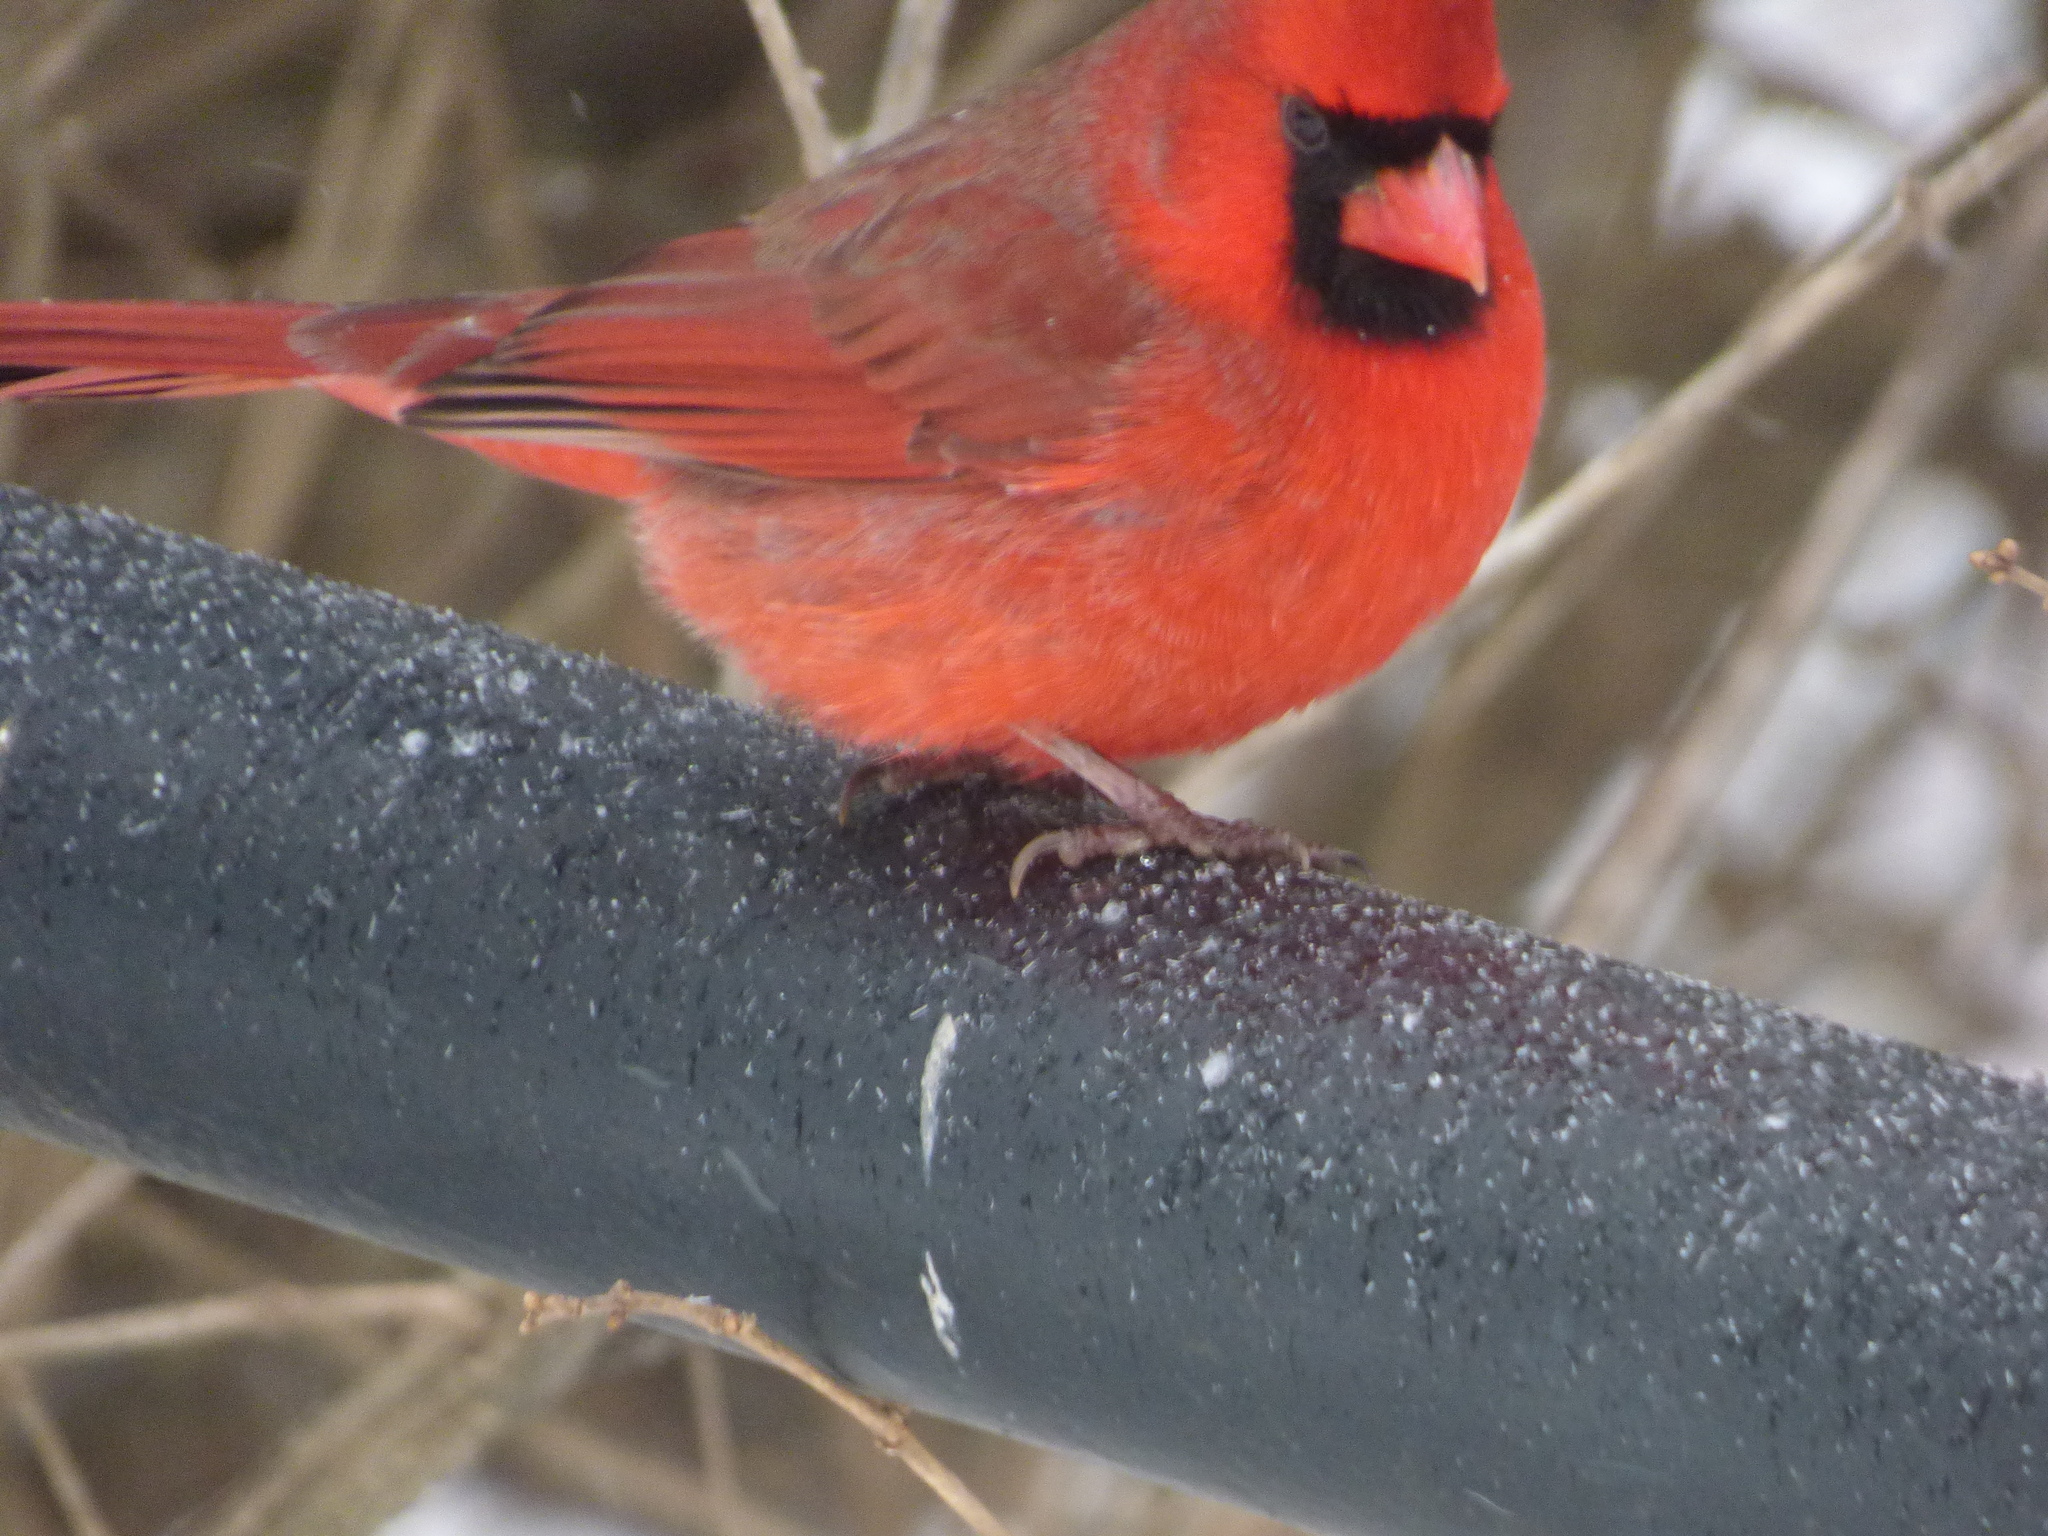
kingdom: Animalia
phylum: Chordata
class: Aves
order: Passeriformes
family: Cardinalidae
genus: Cardinalis
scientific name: Cardinalis cardinalis
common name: Northern cardinal
